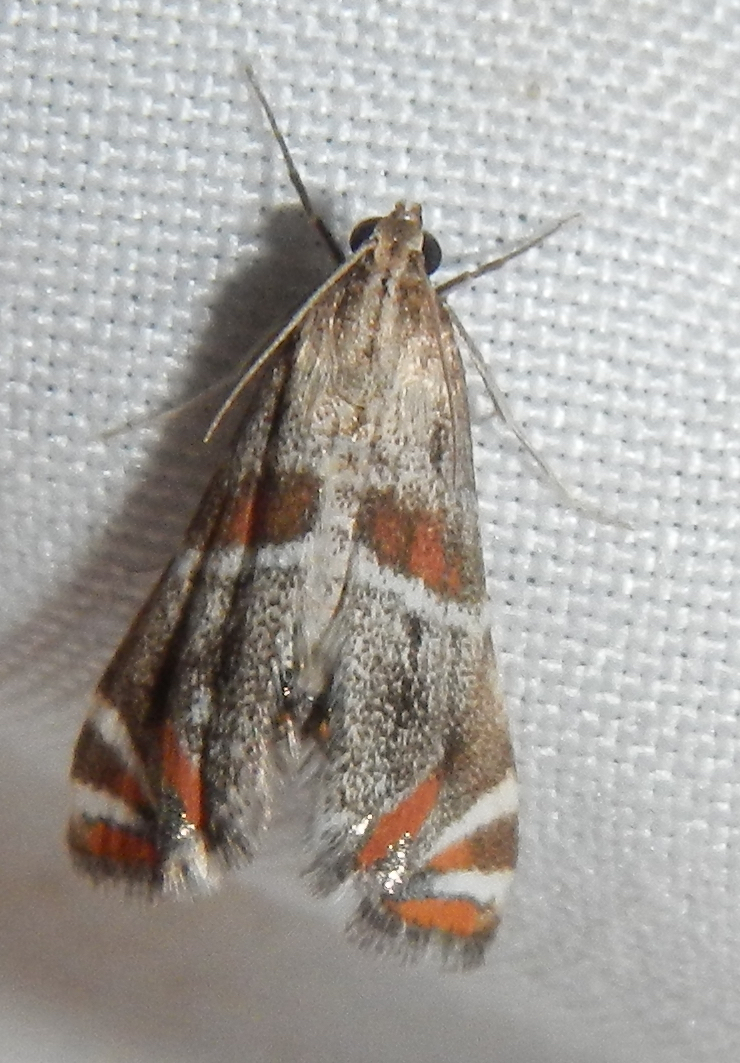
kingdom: Animalia
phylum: Arthropoda
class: Insecta
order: Lepidoptera
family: Crambidae
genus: Petrophila
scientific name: Petrophila jaliscalis
